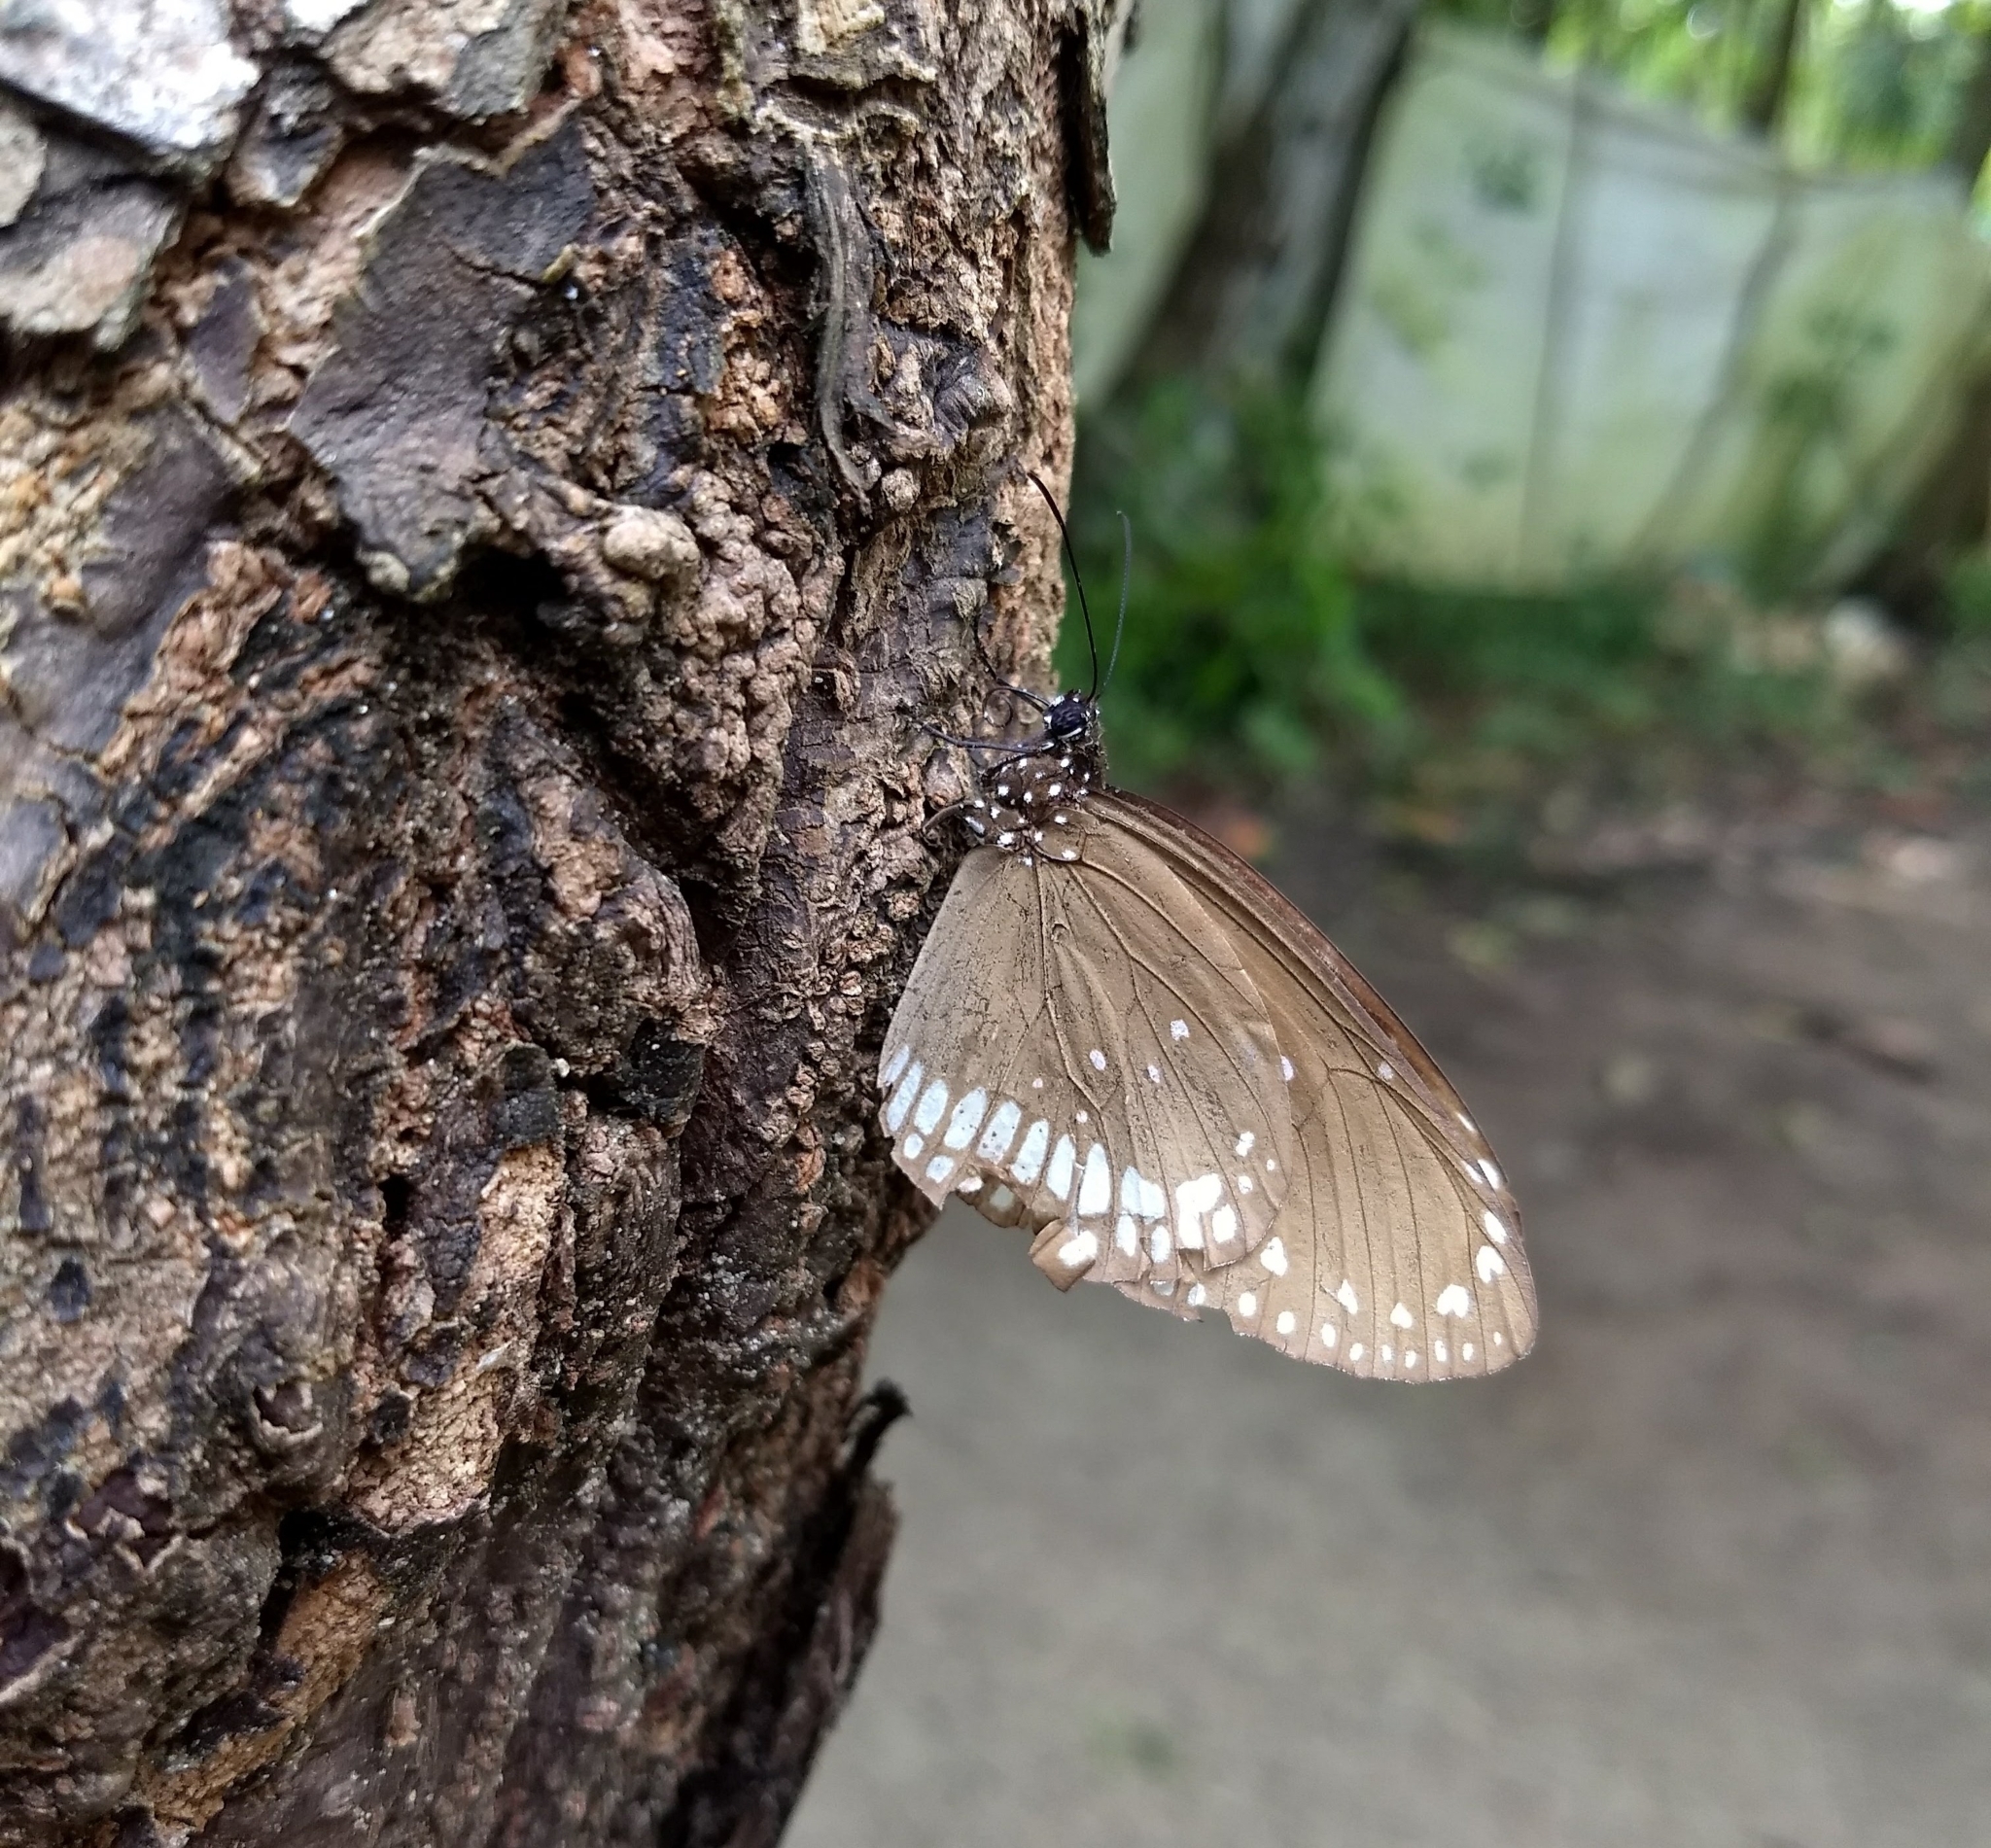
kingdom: Animalia
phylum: Arthropoda
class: Insecta
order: Lepidoptera
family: Nymphalidae
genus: Euploea
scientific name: Euploea core
